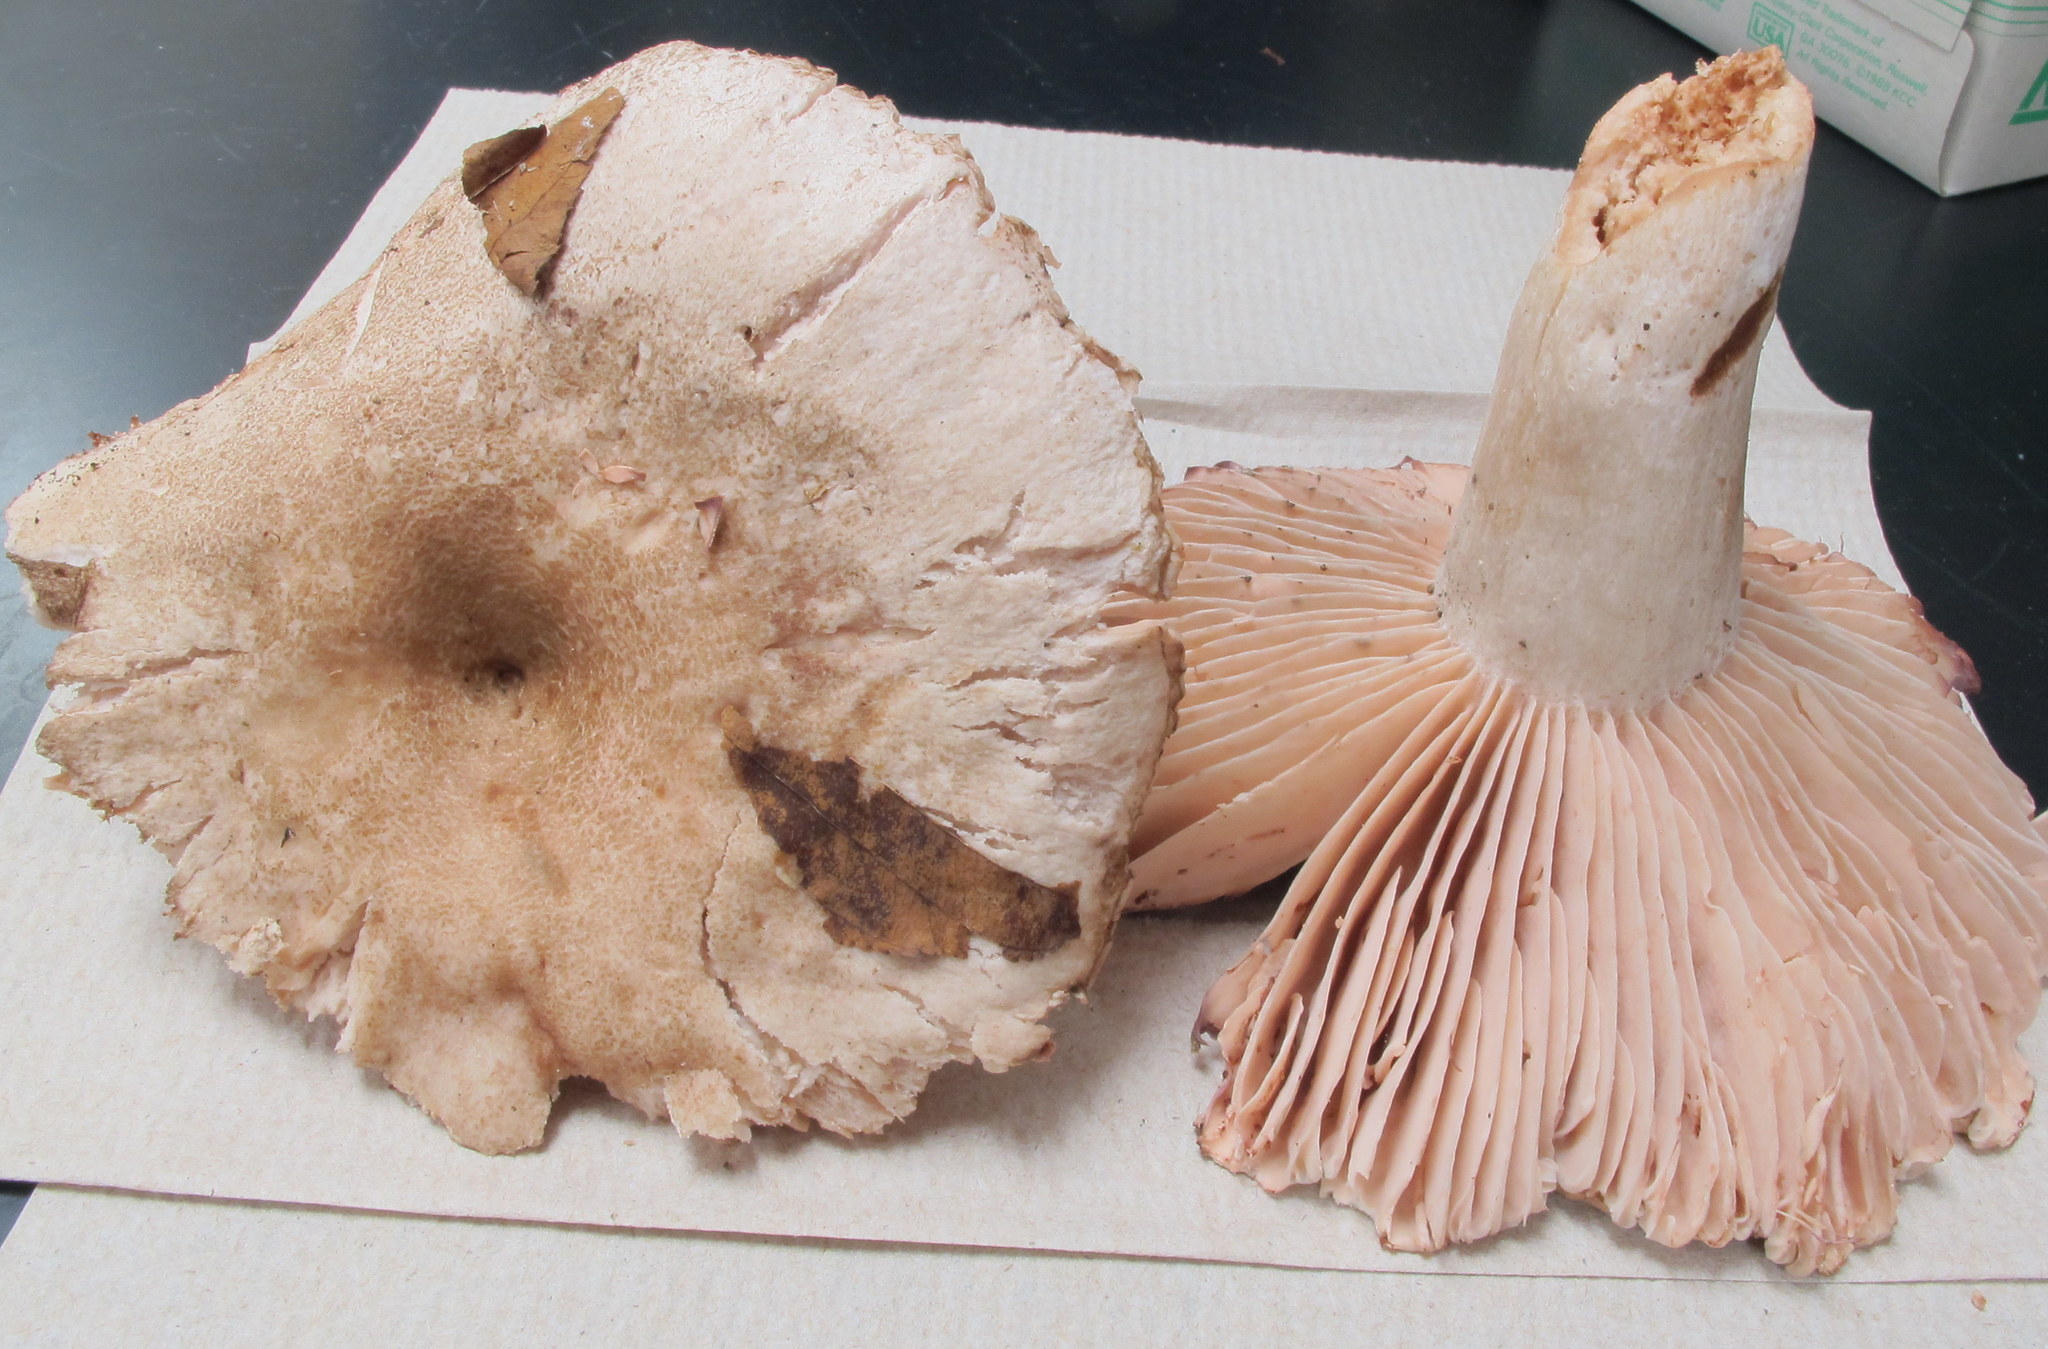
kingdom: Fungi
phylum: Basidiomycota
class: Agaricomycetes
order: Russulales
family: Russulaceae
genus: Russula
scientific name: Russula adusta
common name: Winecork brittlegill
